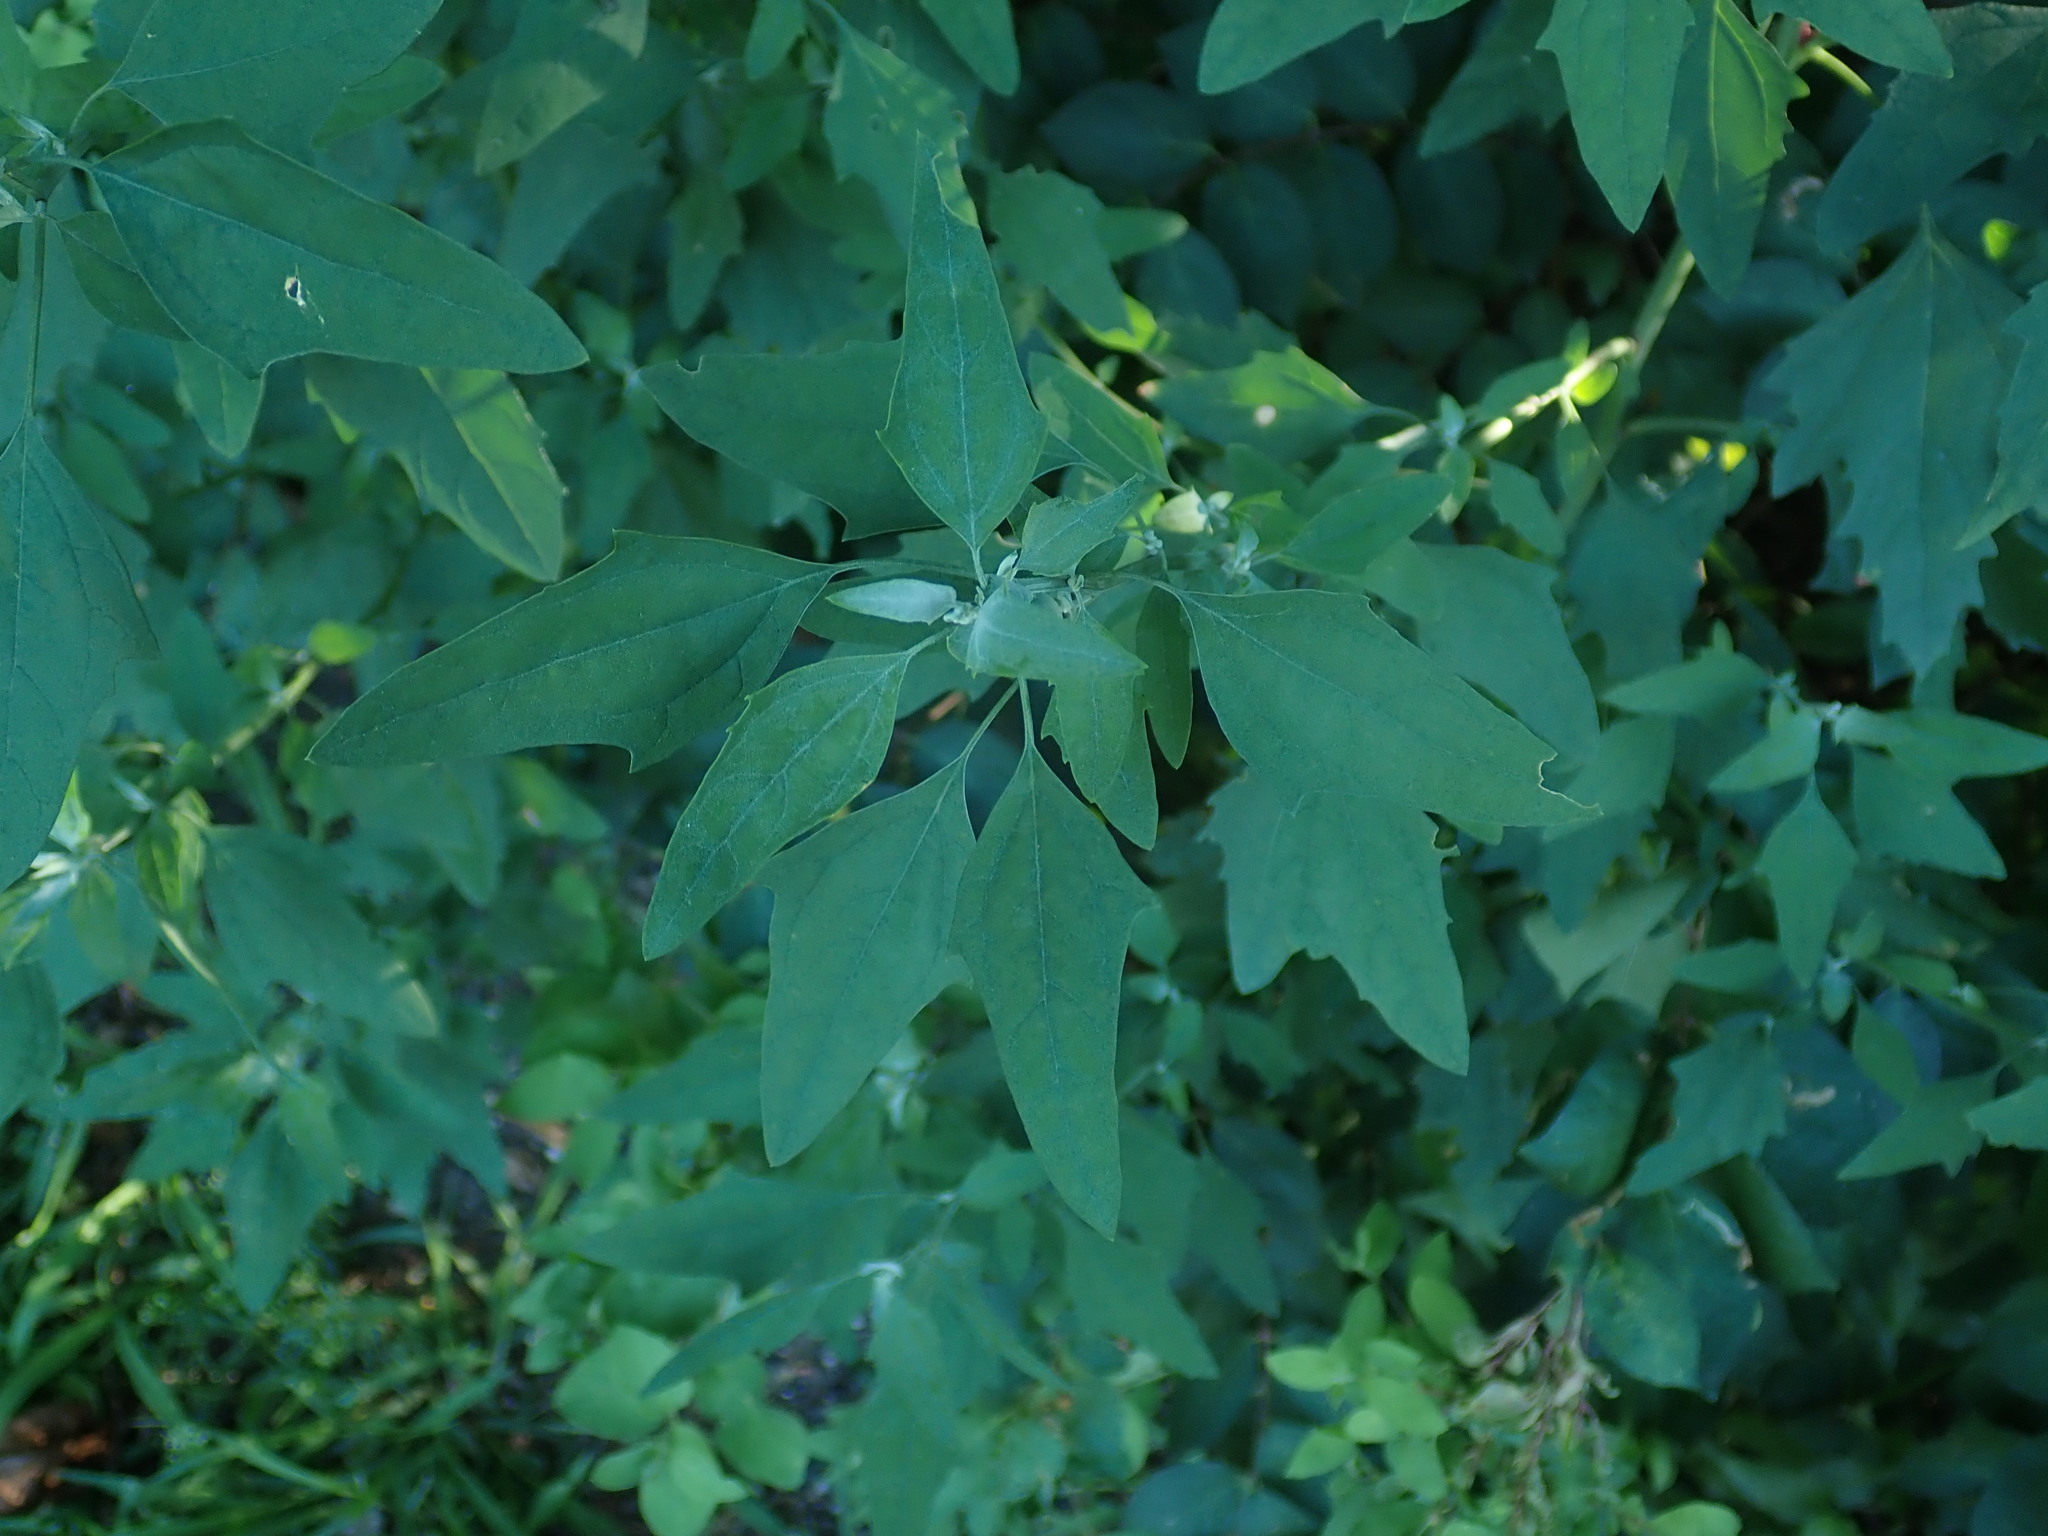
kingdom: Plantae
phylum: Tracheophyta
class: Magnoliopsida
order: Caryophyllales
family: Amaranthaceae
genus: Chenopodium
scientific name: Chenopodium album
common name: Fat-hen
